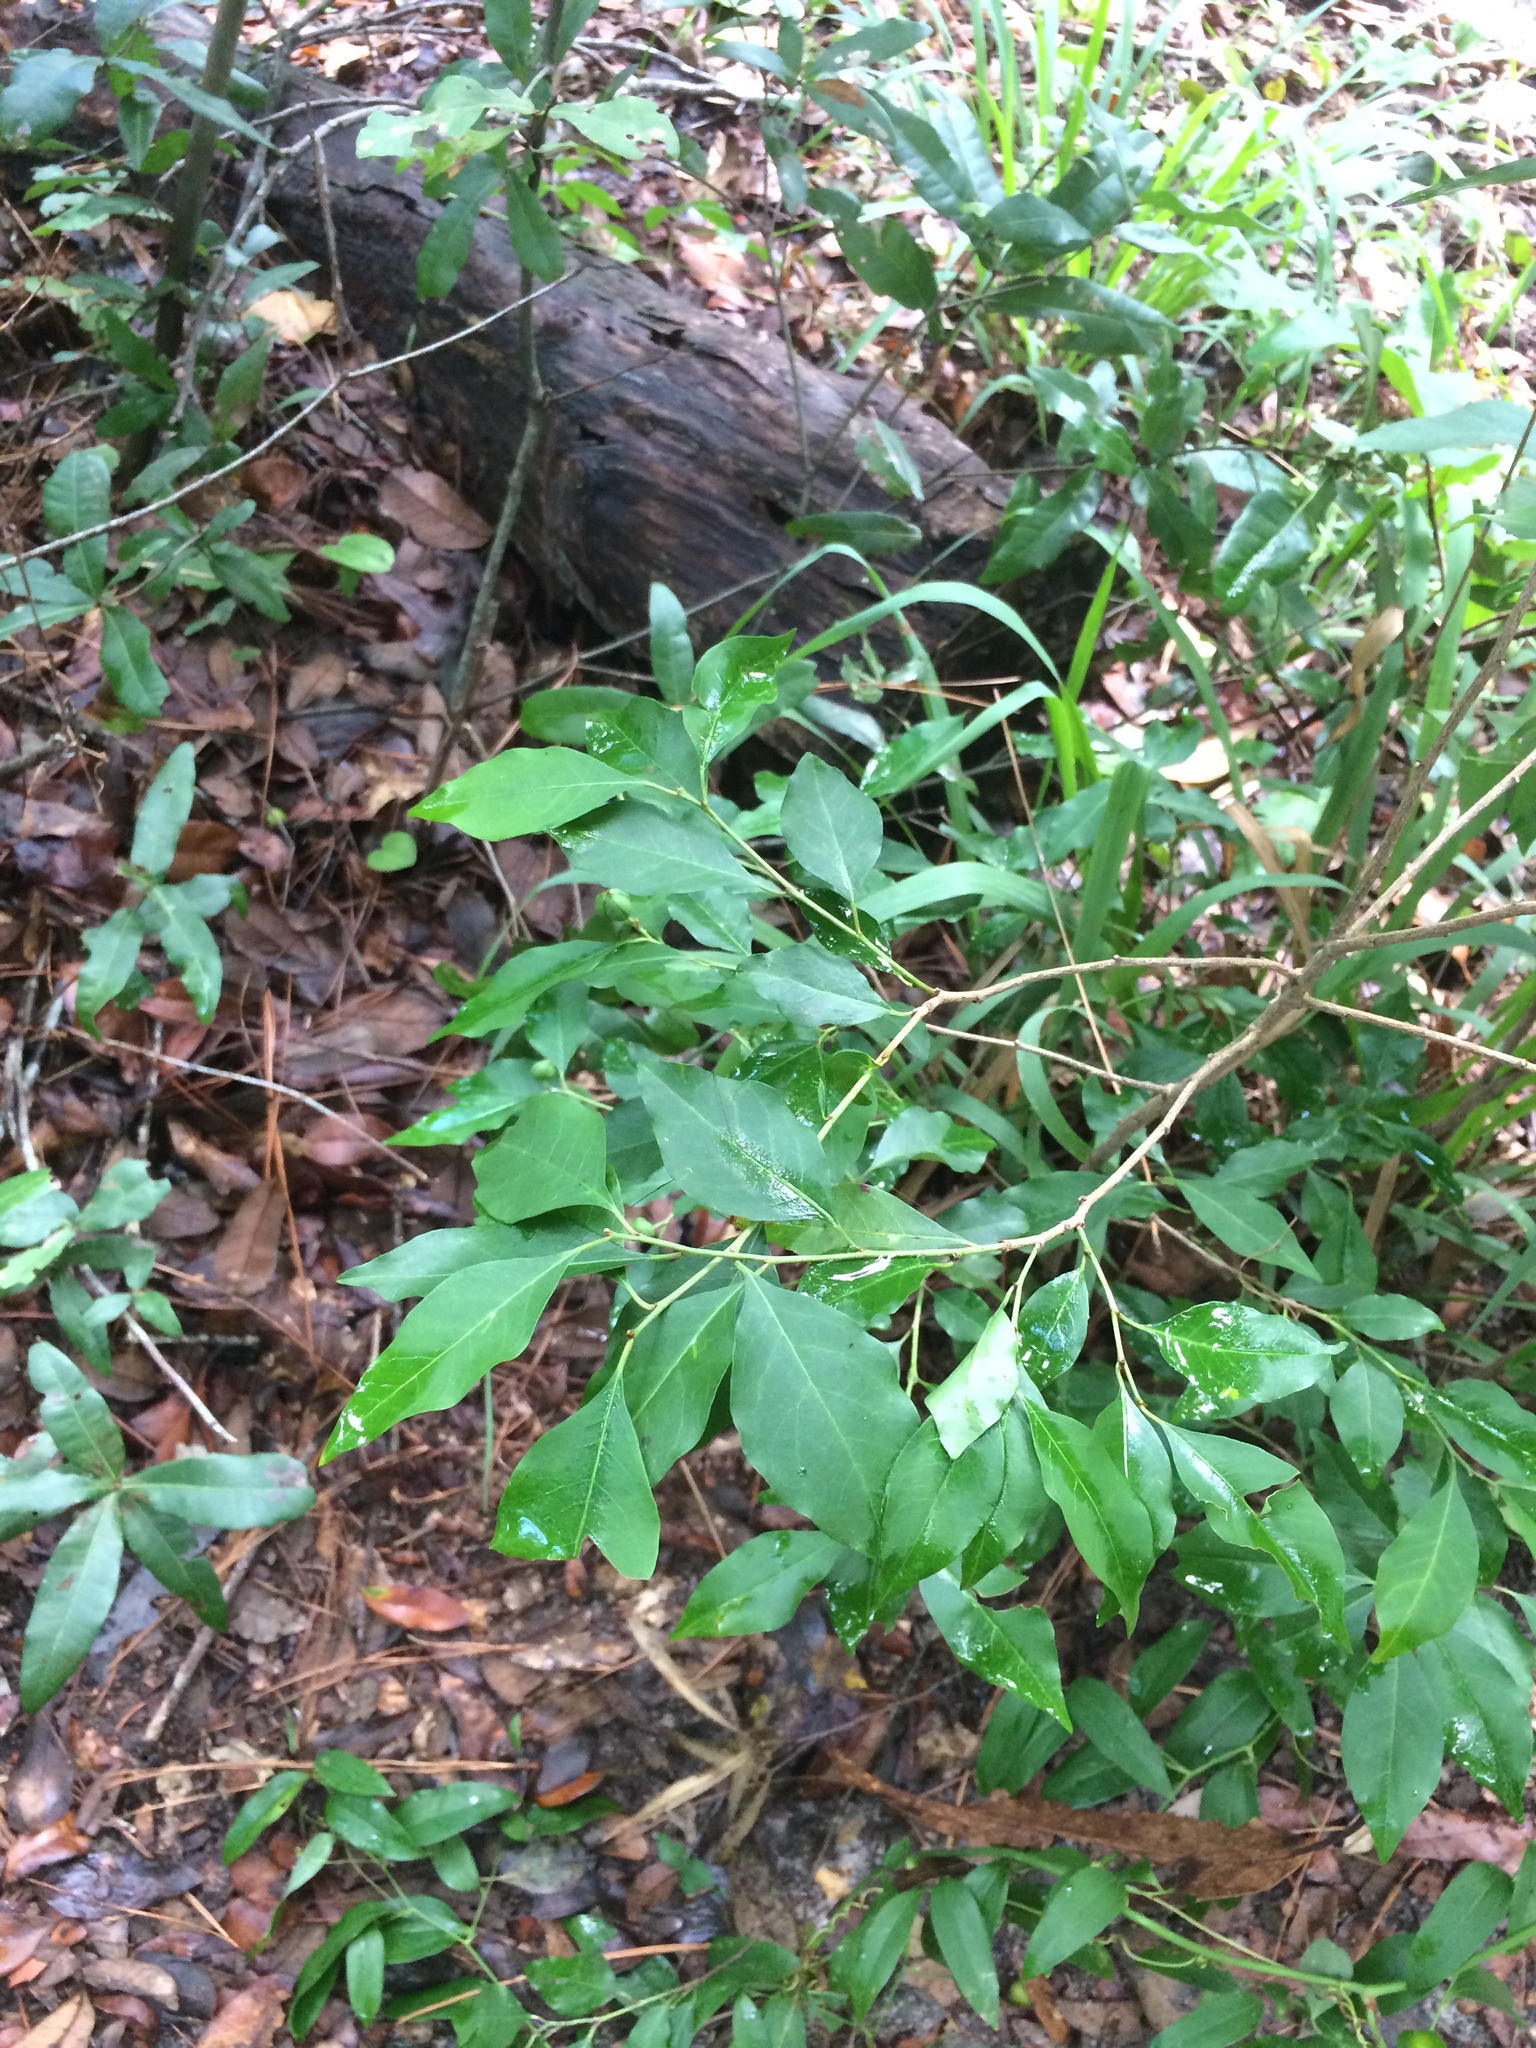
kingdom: Plantae
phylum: Tracheophyta
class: Magnoliopsida
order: Malpighiales
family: Euphorbiaceae
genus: Ditrysinia
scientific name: Ditrysinia fruticosa
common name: Gulf sebastian-bush
